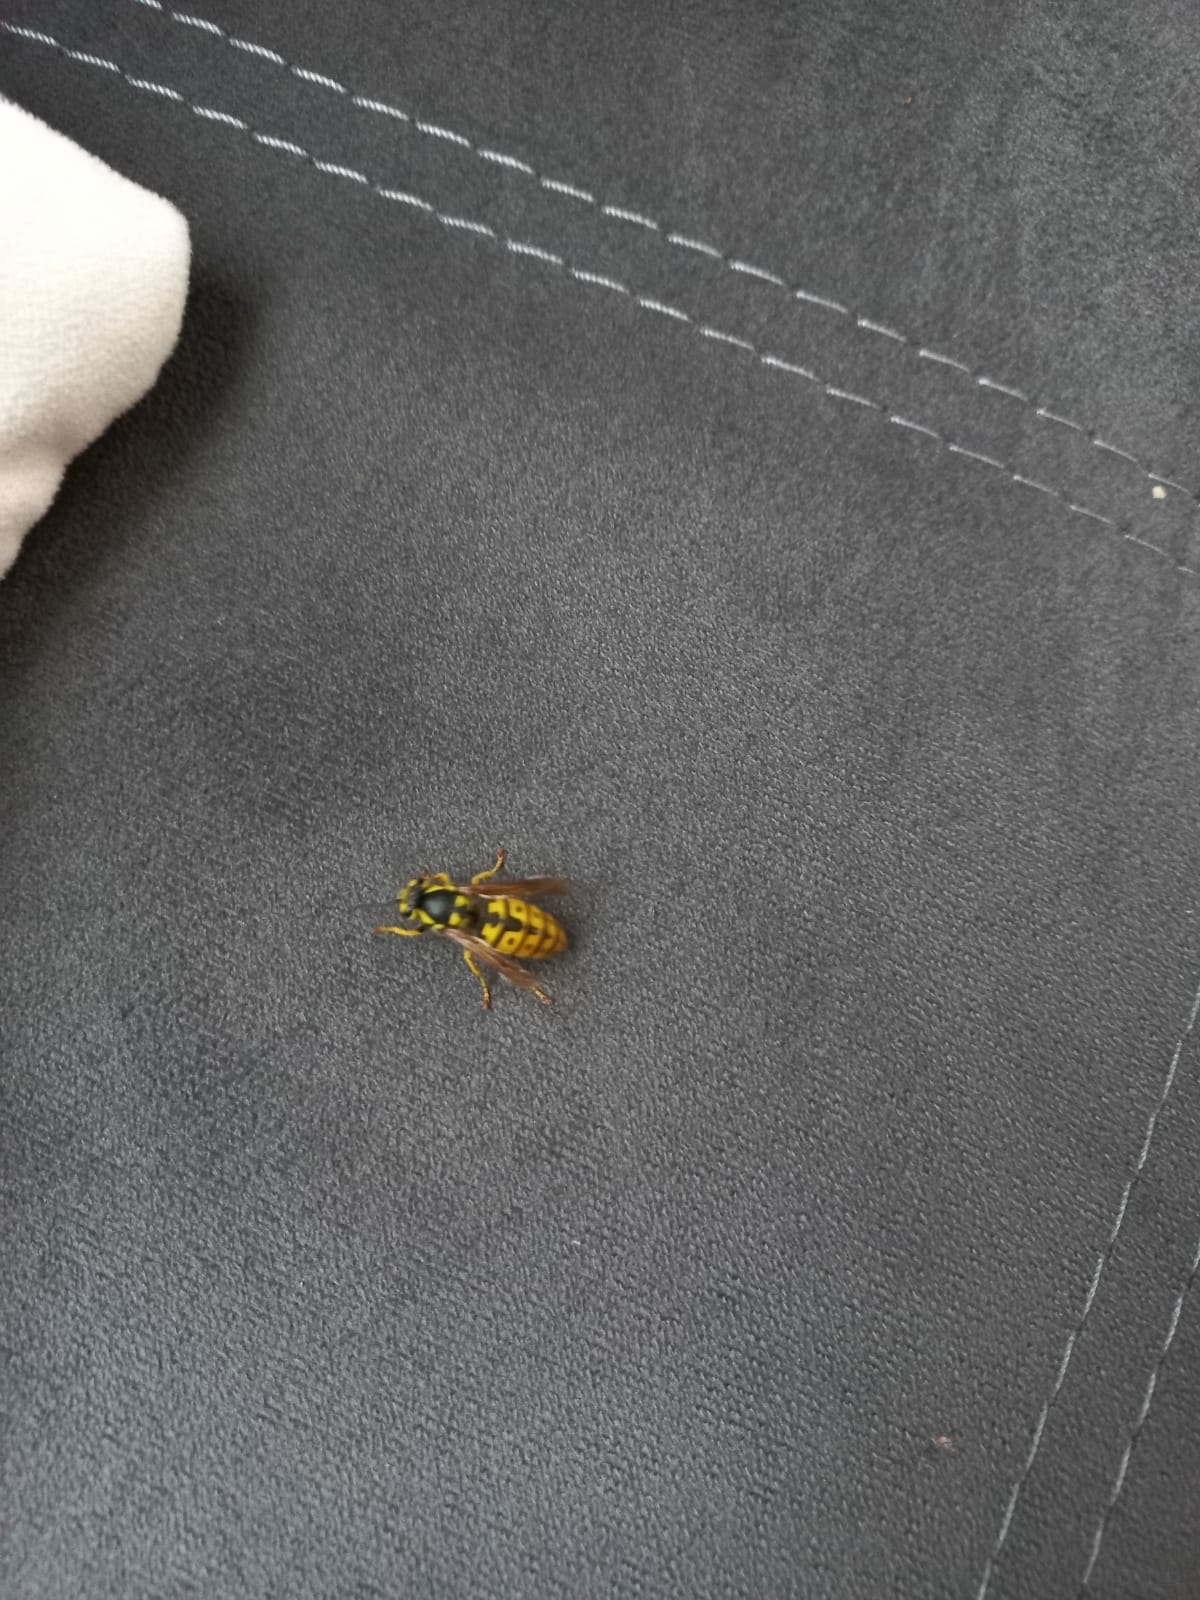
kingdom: Animalia
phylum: Arthropoda
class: Insecta
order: Hymenoptera
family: Vespidae
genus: Vespula
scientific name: Vespula germanica
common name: German wasp
